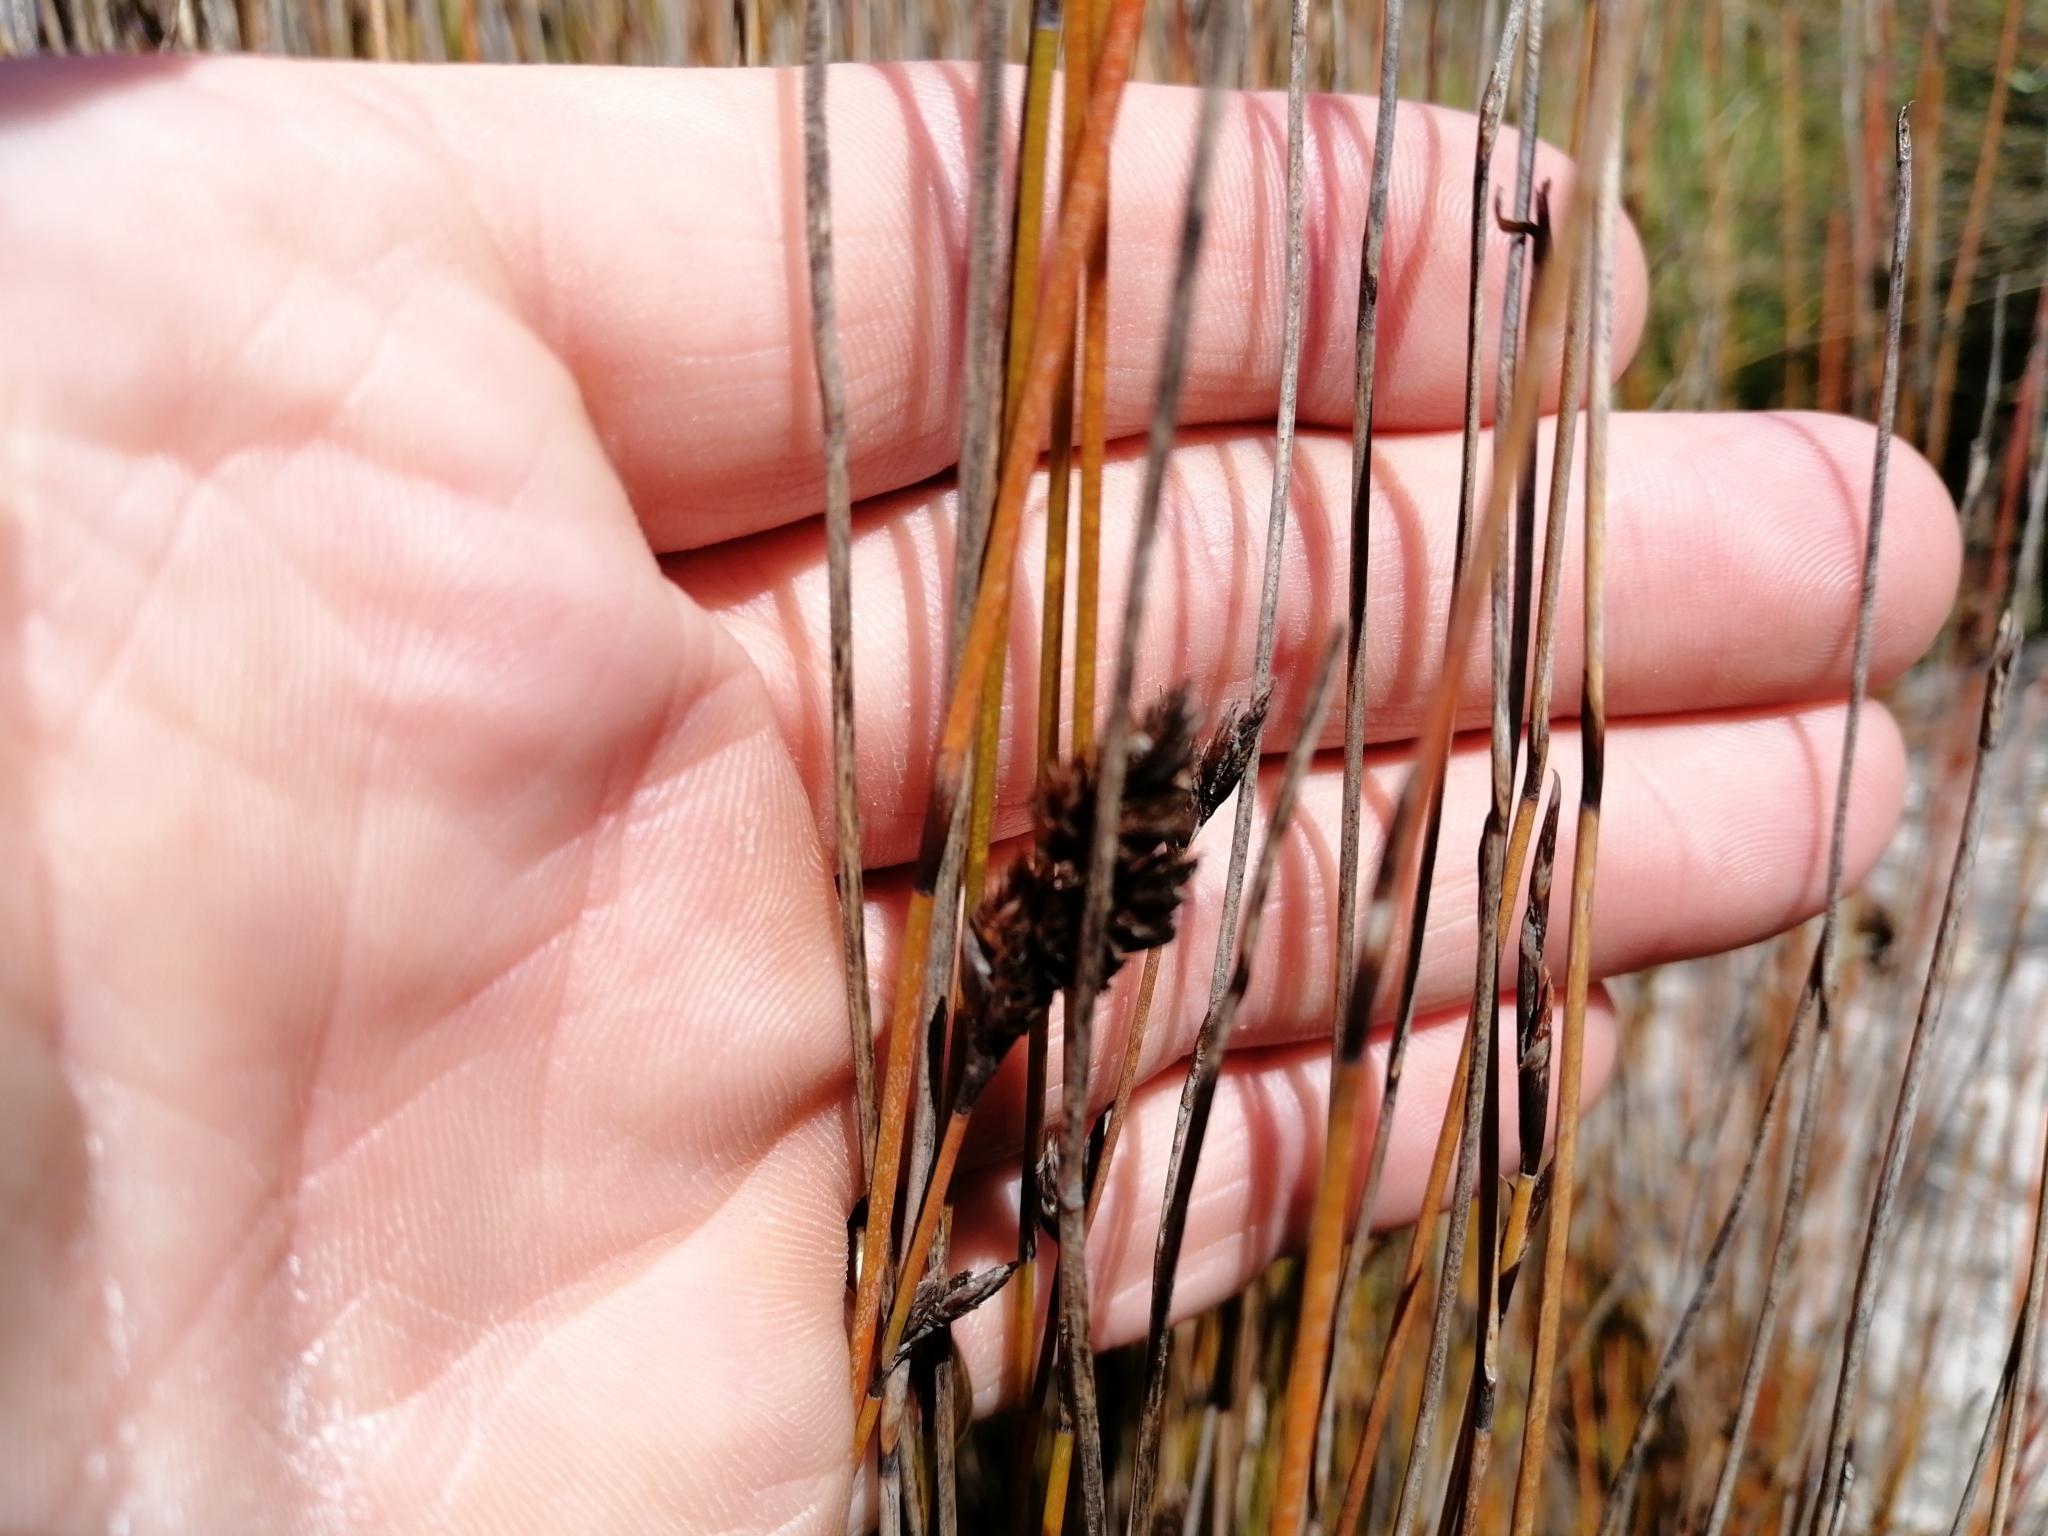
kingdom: Plantae
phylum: Tracheophyta
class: Liliopsida
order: Poales
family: Restionaceae
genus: Apodasmia
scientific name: Apodasmia similis
